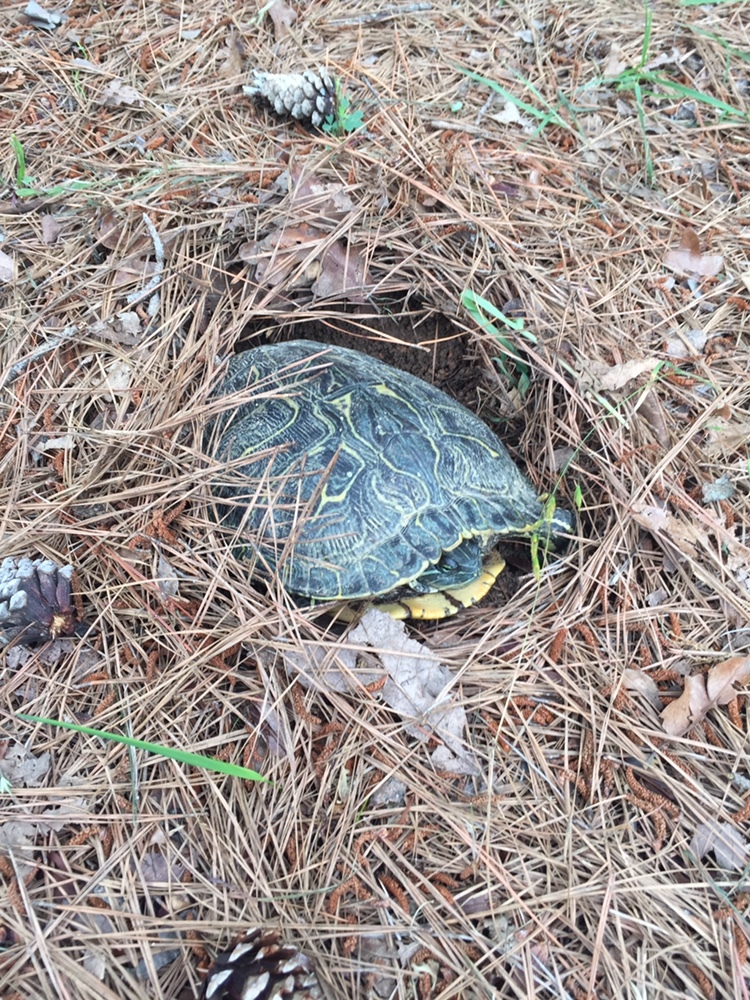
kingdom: Animalia
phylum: Chordata
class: Testudines
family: Emydidae
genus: Trachemys
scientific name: Trachemys scripta
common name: Slider
